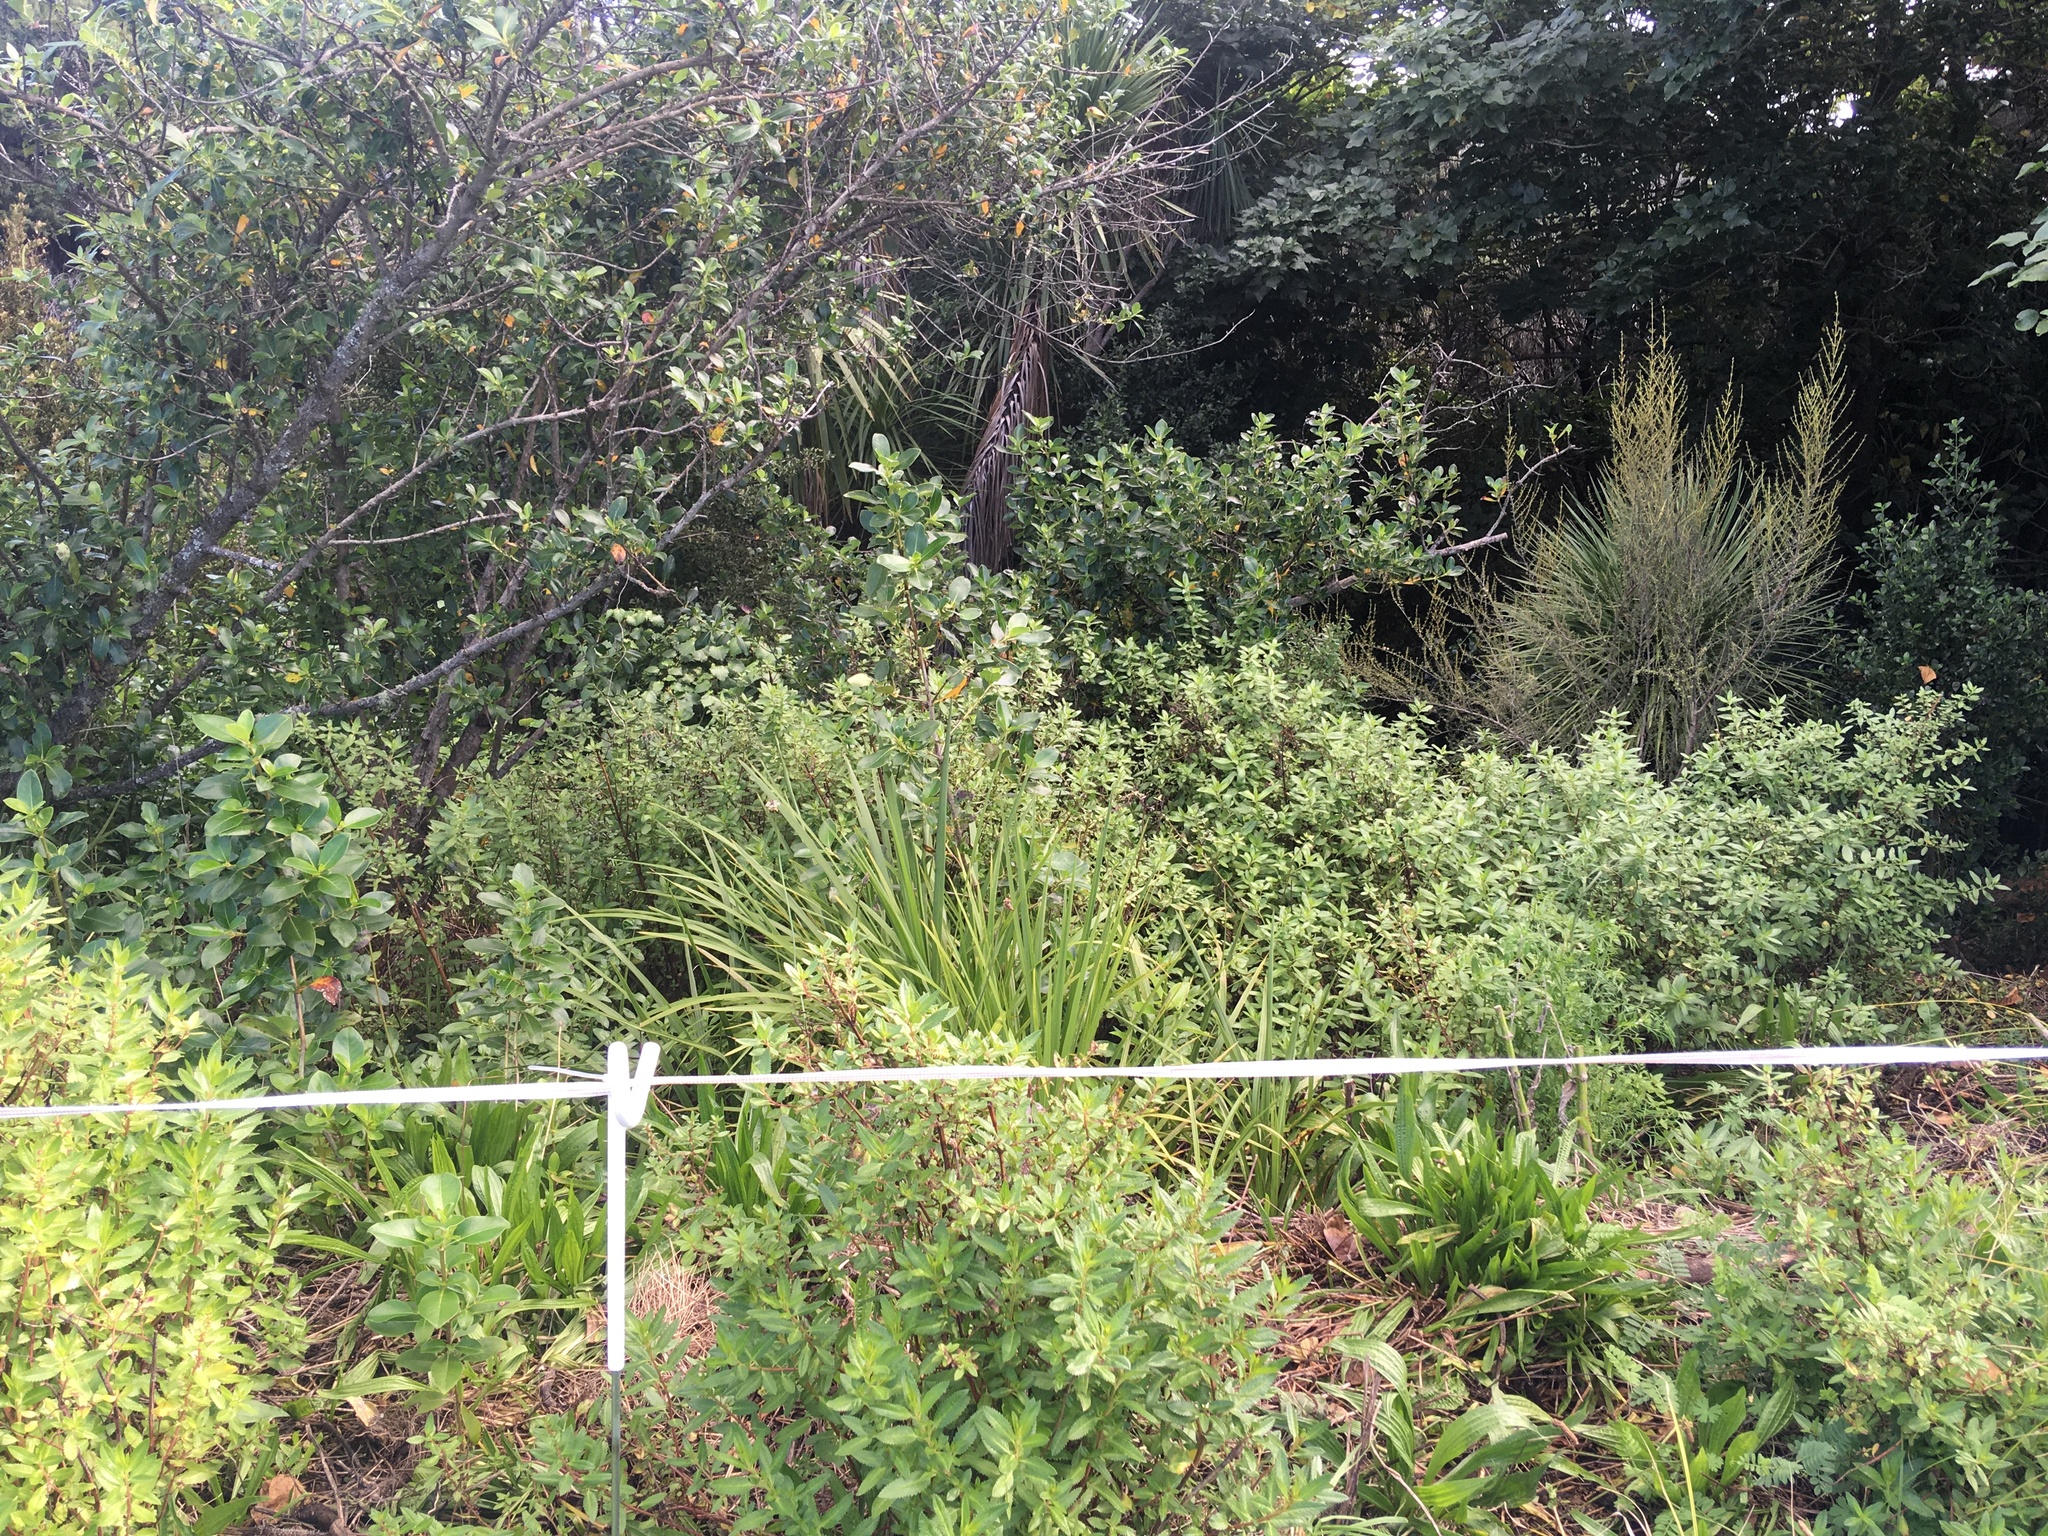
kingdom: Plantae
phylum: Tracheophyta
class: Magnoliopsida
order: Gentianales
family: Rubiaceae
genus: Coprosma
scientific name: Coprosma robusta
